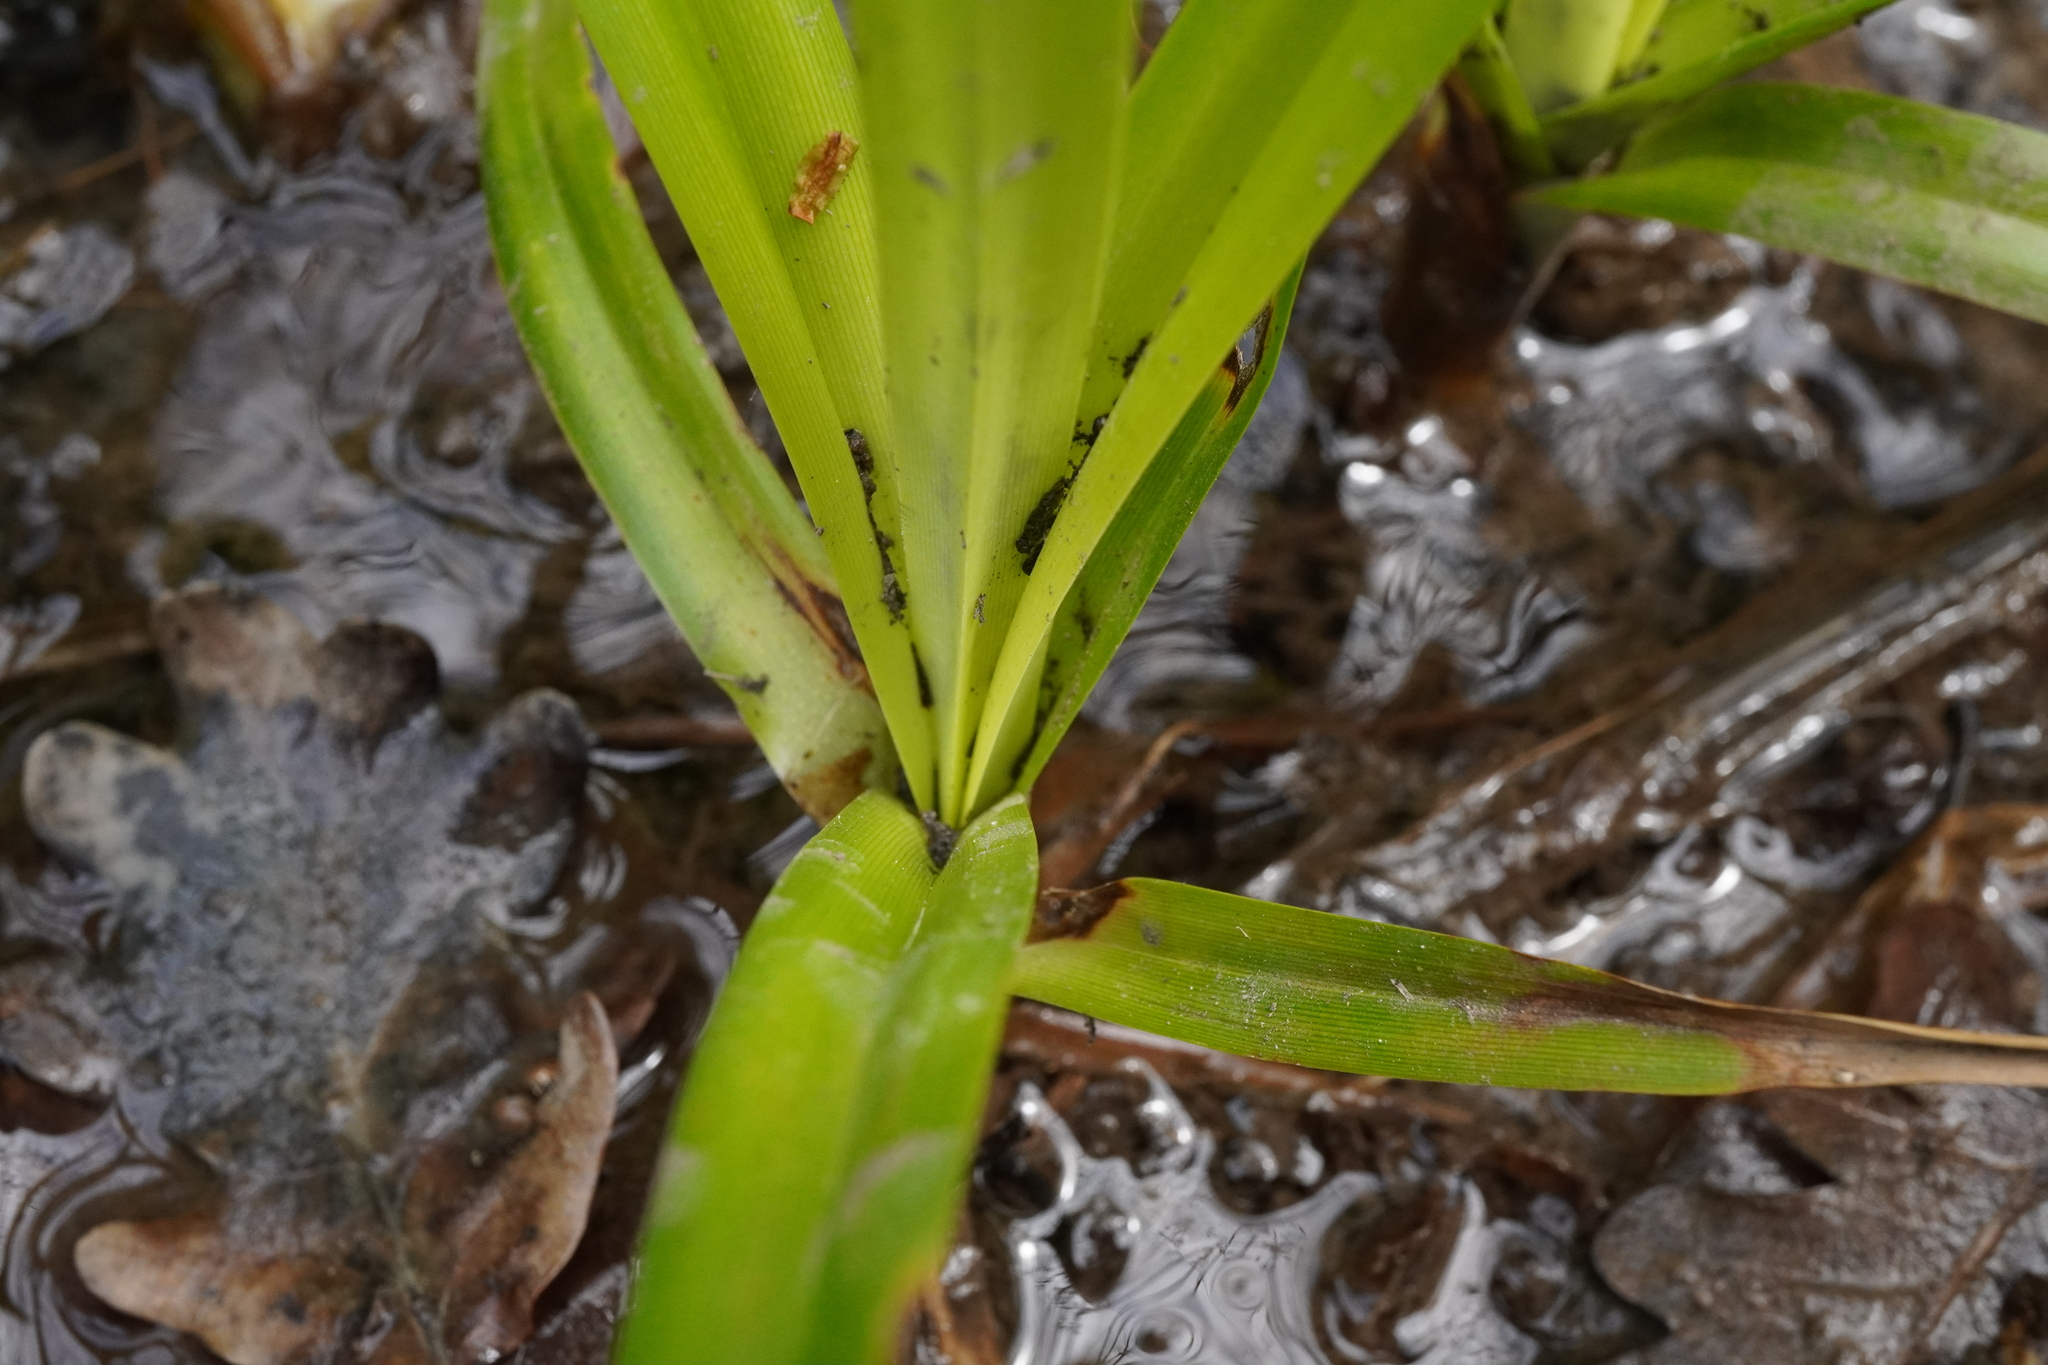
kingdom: Plantae
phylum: Tracheophyta
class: Liliopsida
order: Poales
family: Cyperaceae
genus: Scirpus
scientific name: Scirpus sylvaticus
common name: Wood club-rush
